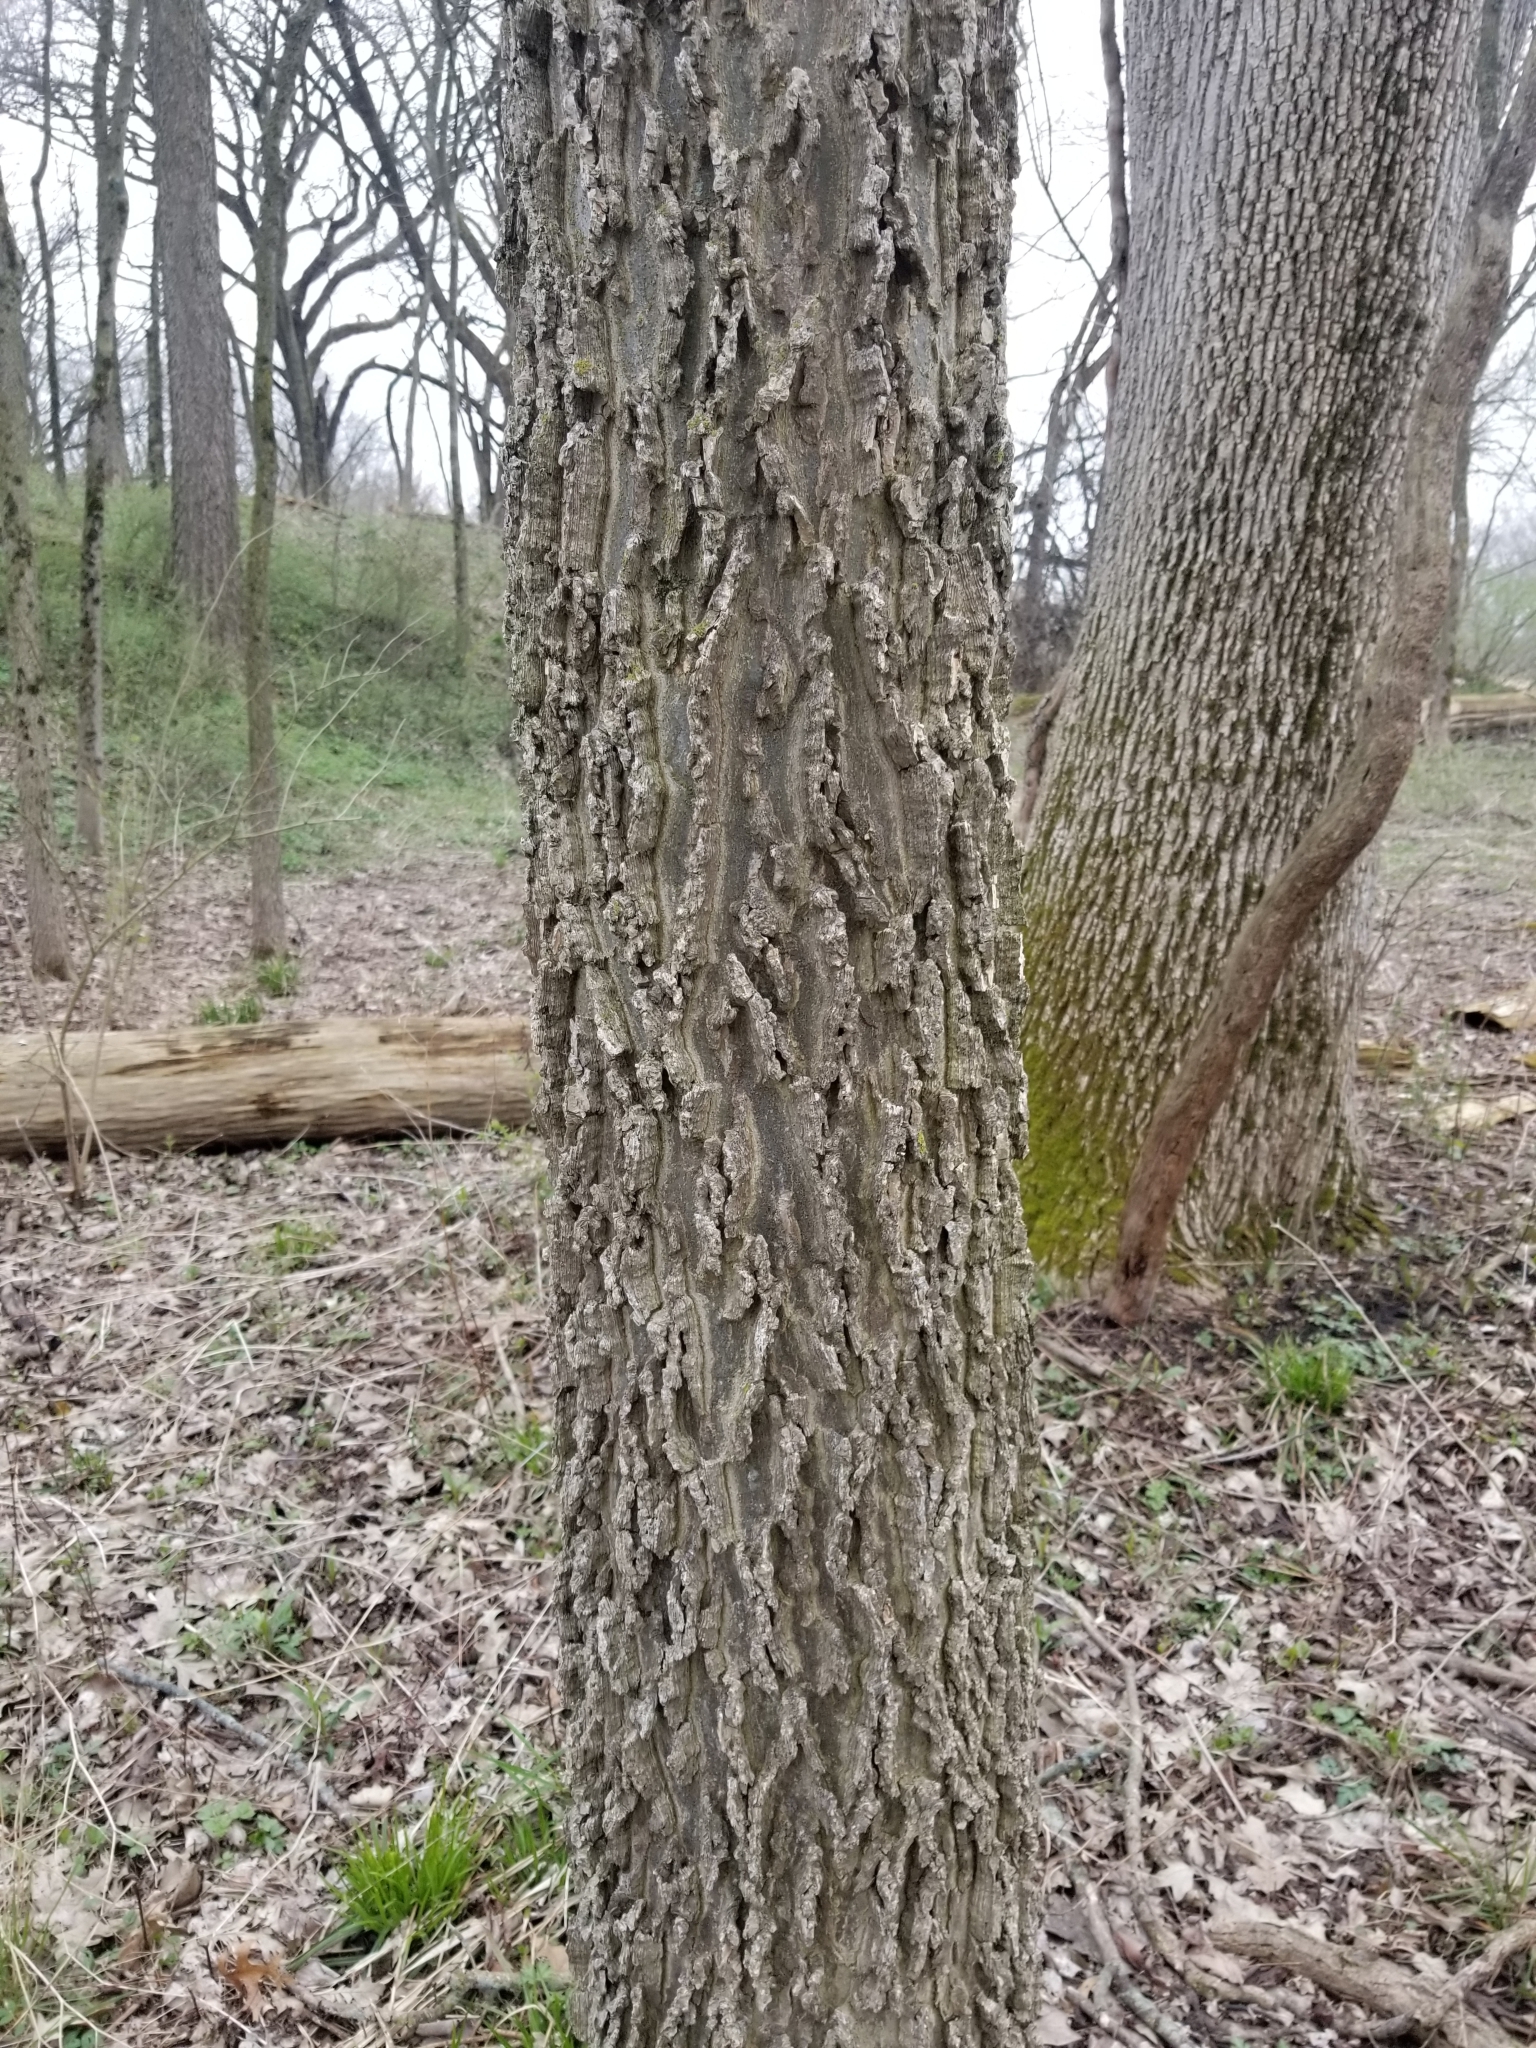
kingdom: Plantae
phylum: Tracheophyta
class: Magnoliopsida
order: Rosales
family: Cannabaceae
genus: Celtis
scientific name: Celtis occidentalis
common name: Common hackberry
